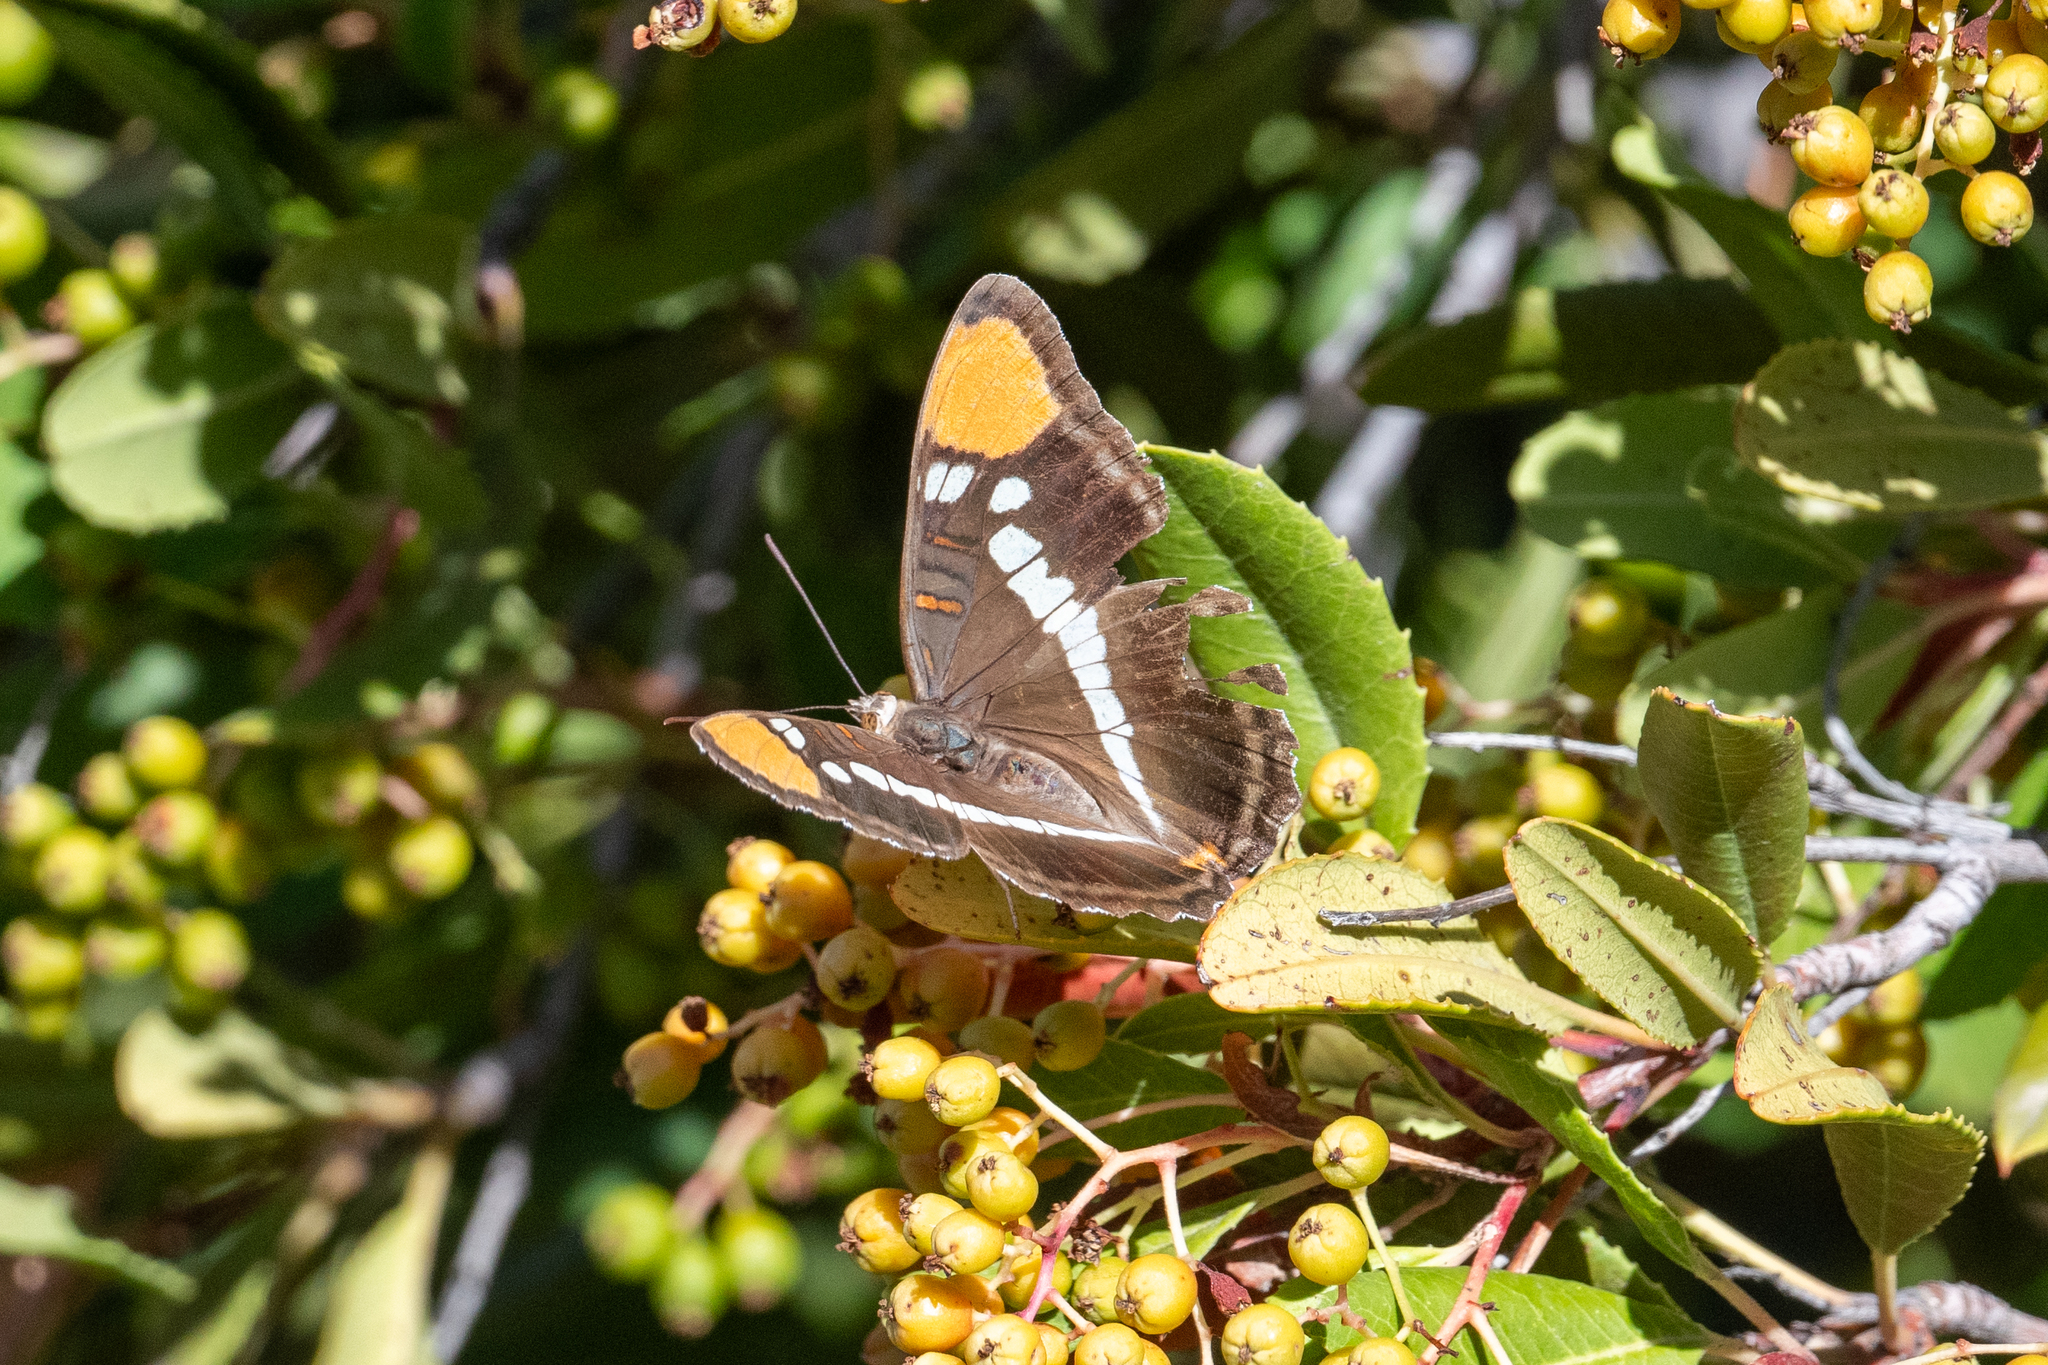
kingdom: Animalia
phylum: Arthropoda
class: Insecta
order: Lepidoptera
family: Nymphalidae
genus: Limenitis
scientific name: Limenitis bredowii
